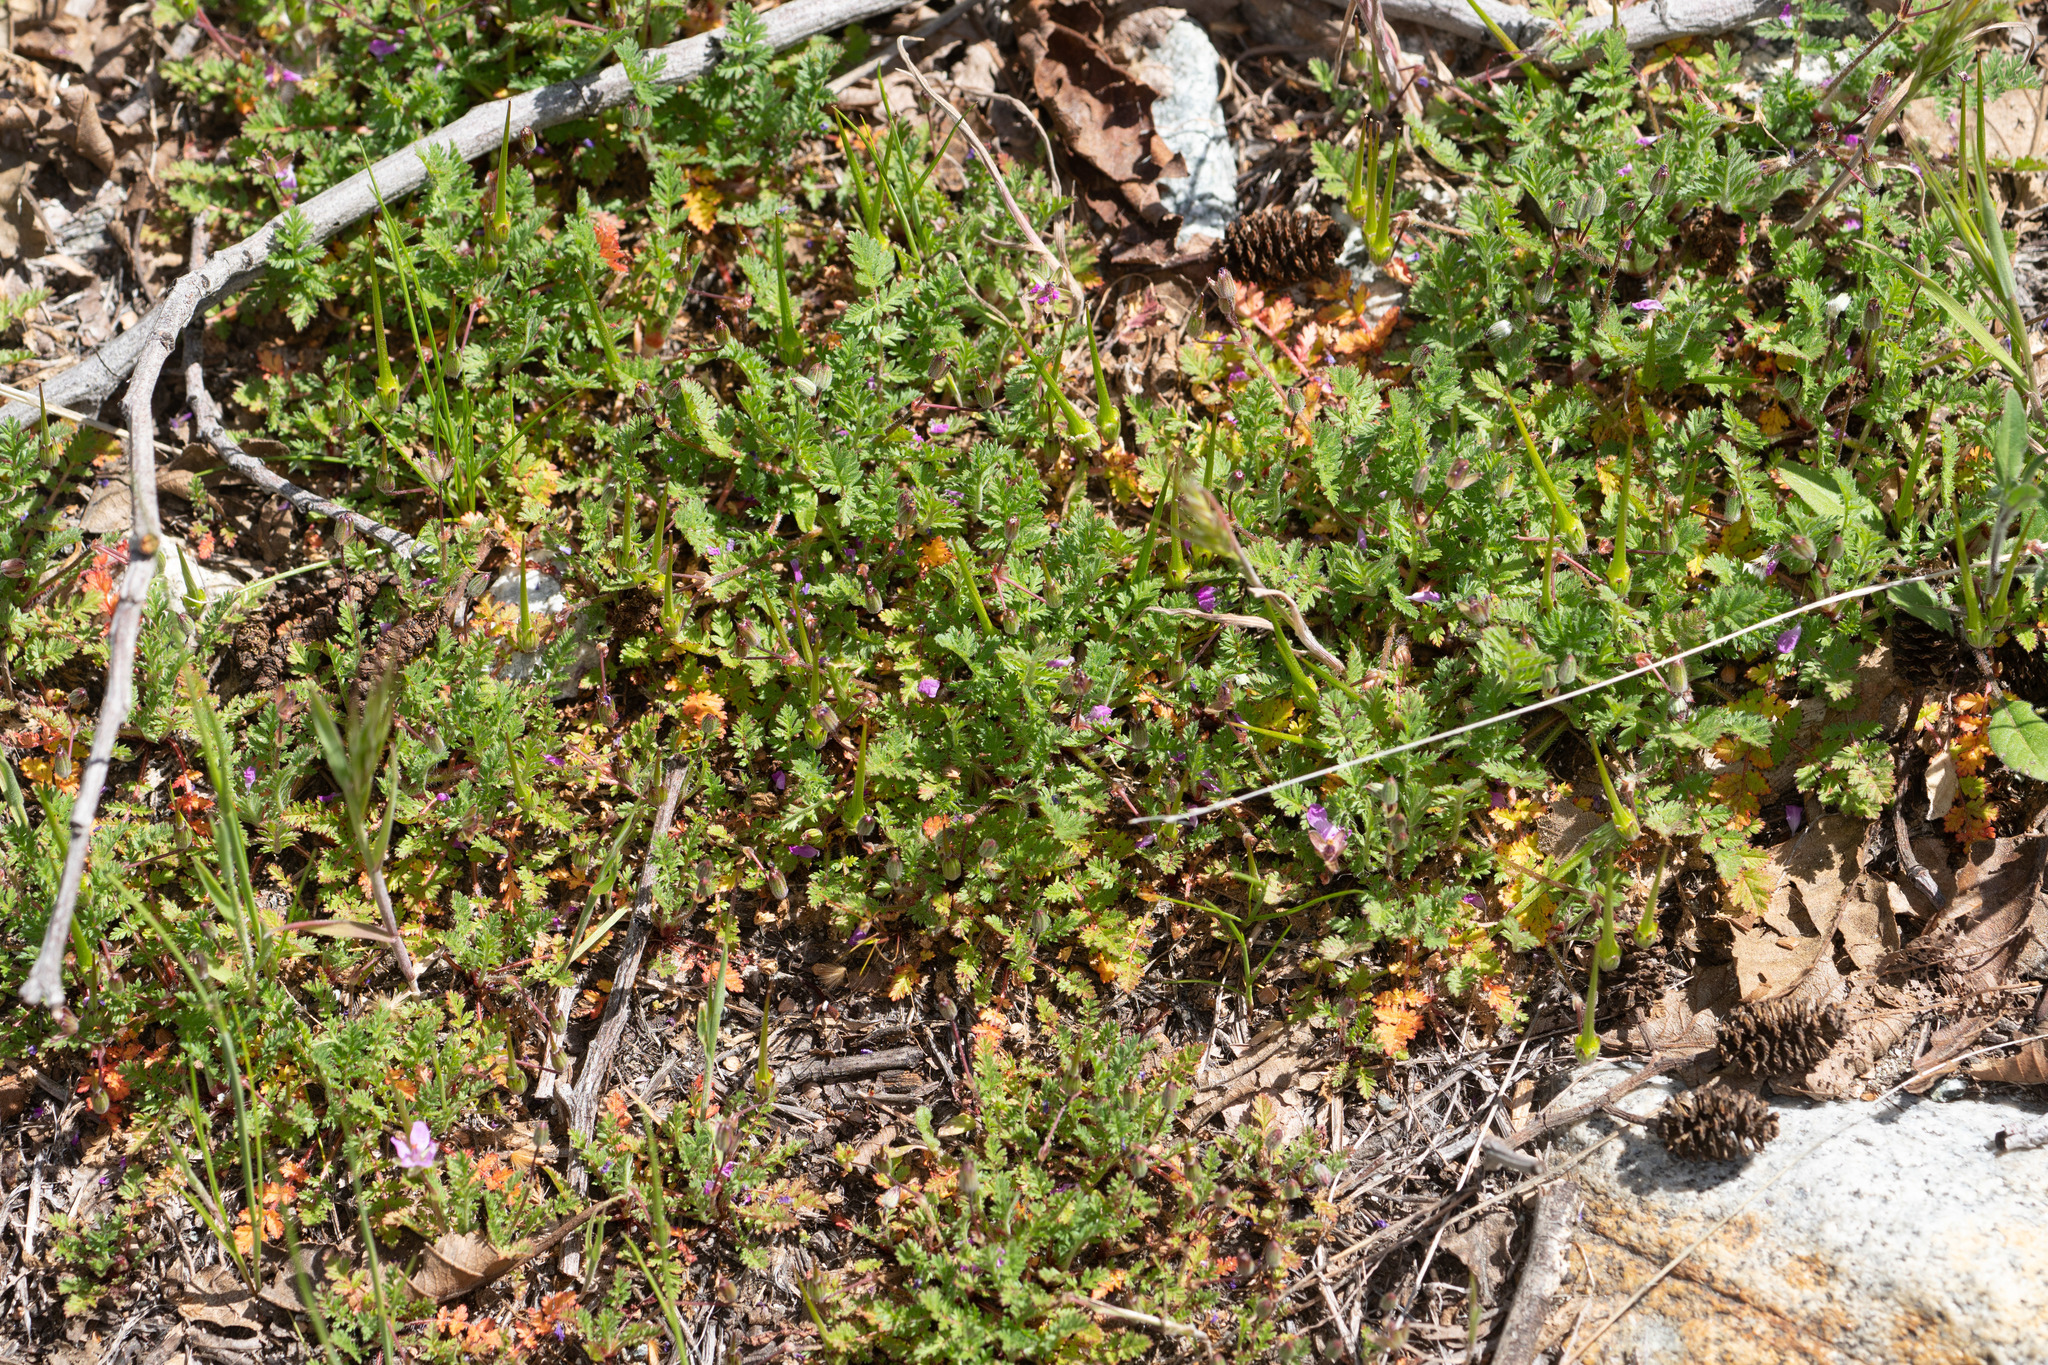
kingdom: Plantae
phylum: Tracheophyta
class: Magnoliopsida
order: Geraniales
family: Geraniaceae
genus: Erodium
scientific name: Erodium cicutarium
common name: Common stork's-bill
